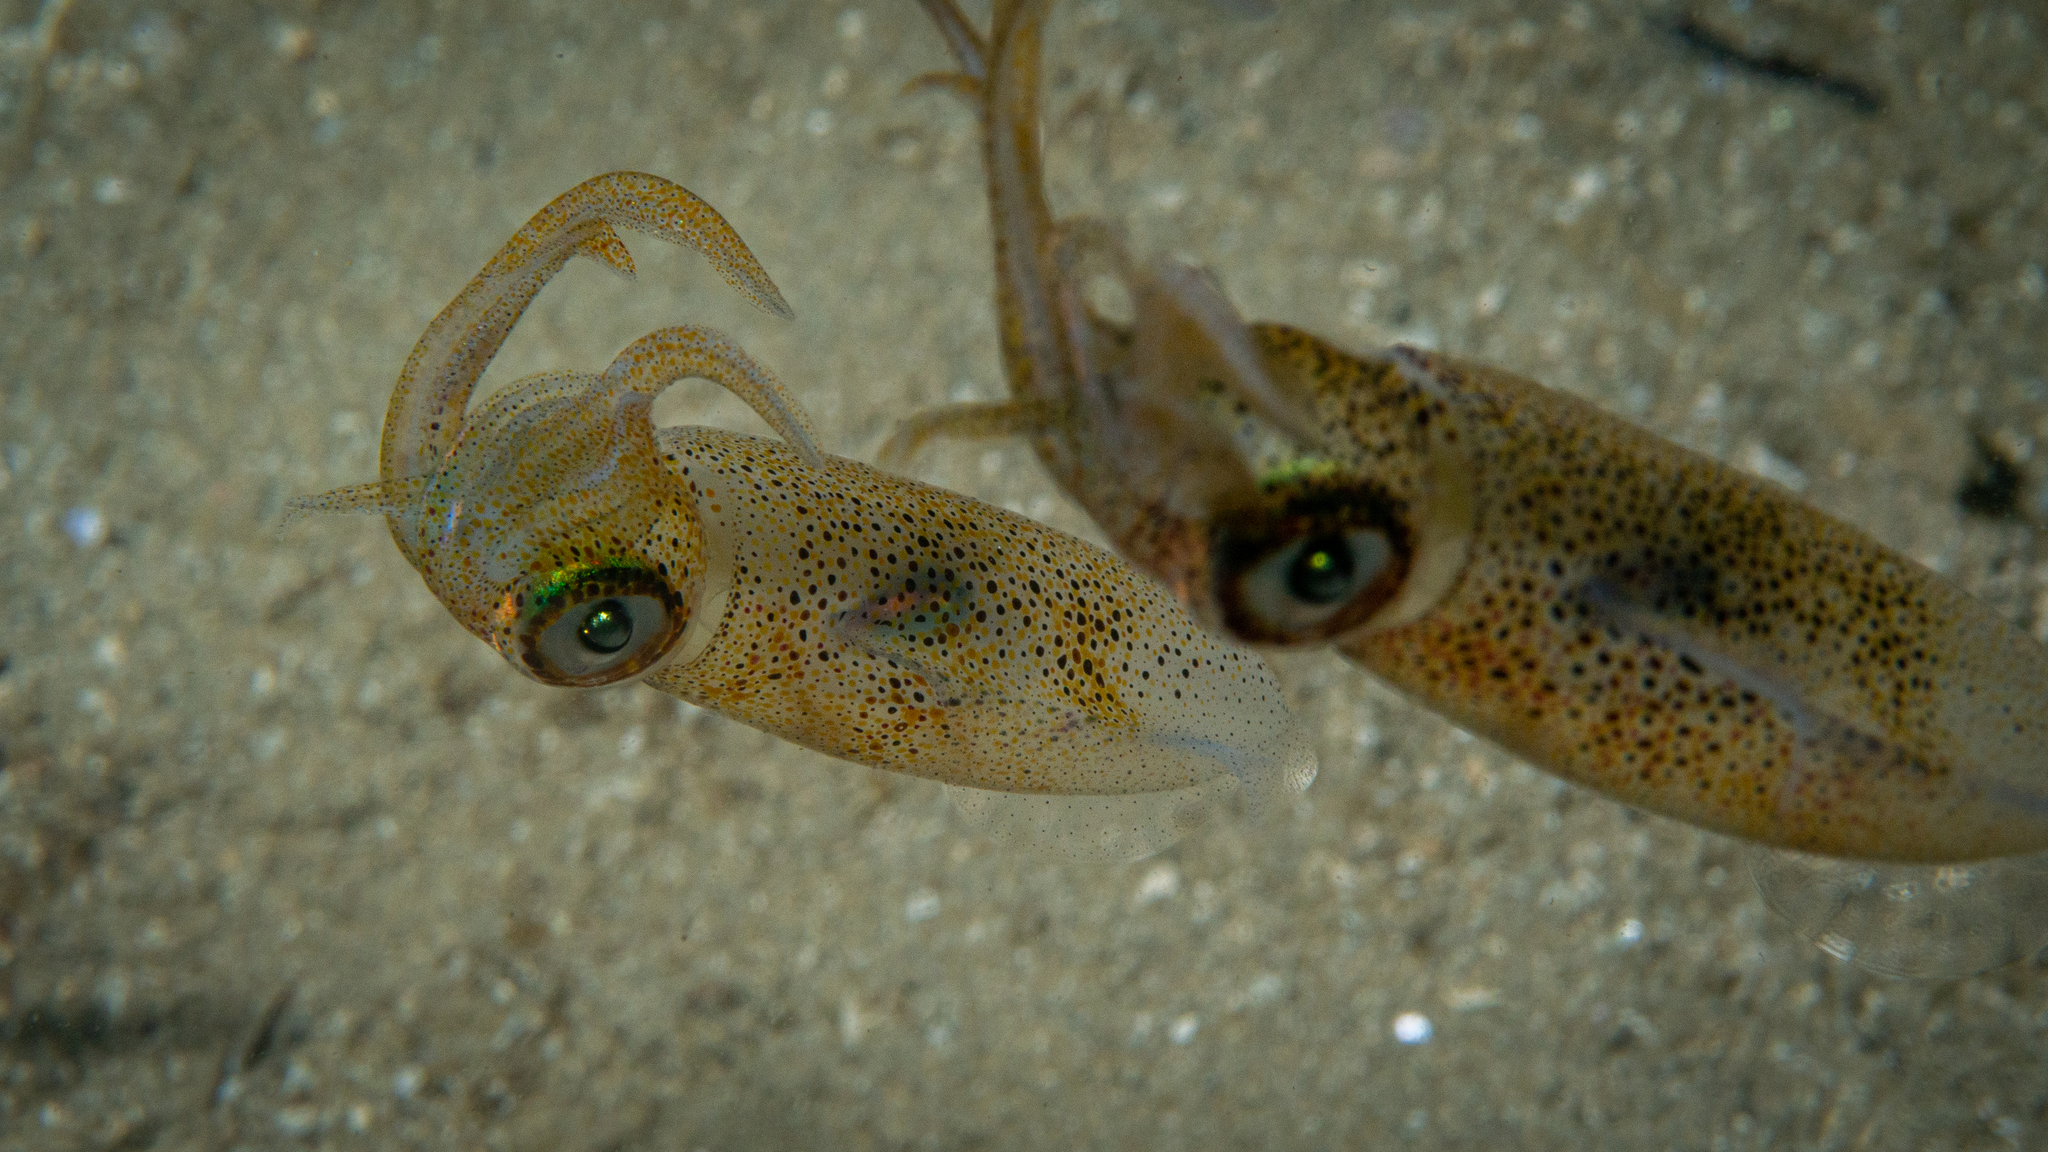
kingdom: Animalia
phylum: Mollusca
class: Cephalopoda
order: Myopsida
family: Loliginidae
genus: Sepioteuthis
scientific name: Sepioteuthis australis
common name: Southern reef squid
